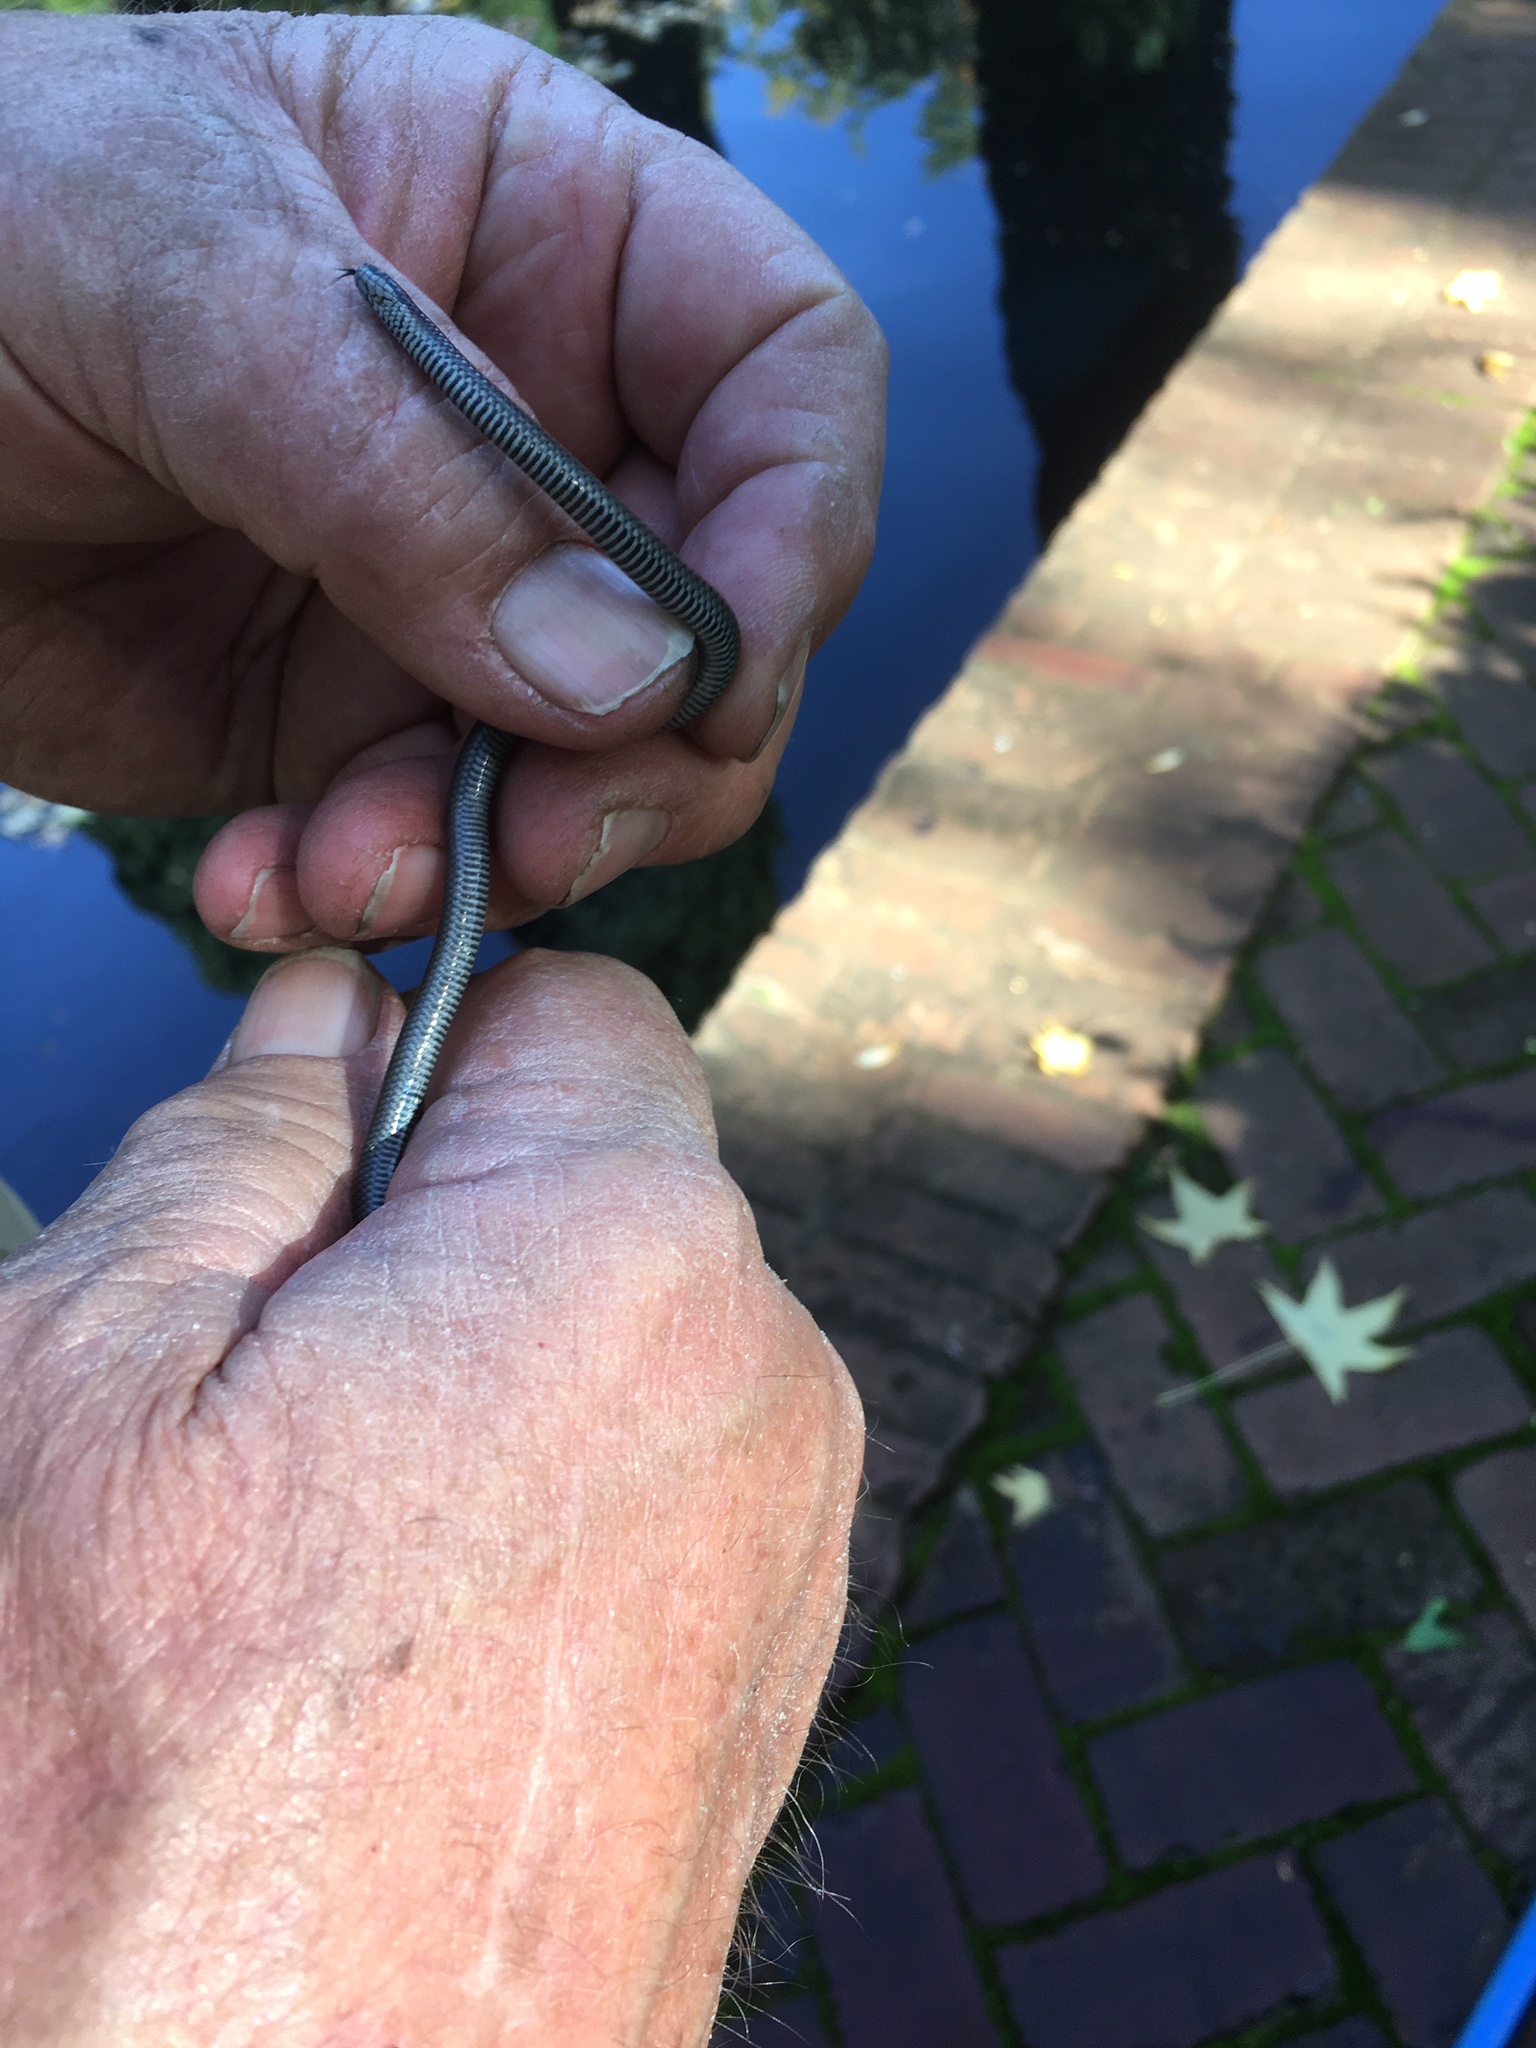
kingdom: Animalia
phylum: Chordata
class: Squamata
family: Colubridae
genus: Contia
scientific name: Contia tenuis
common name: Sharptail snake
